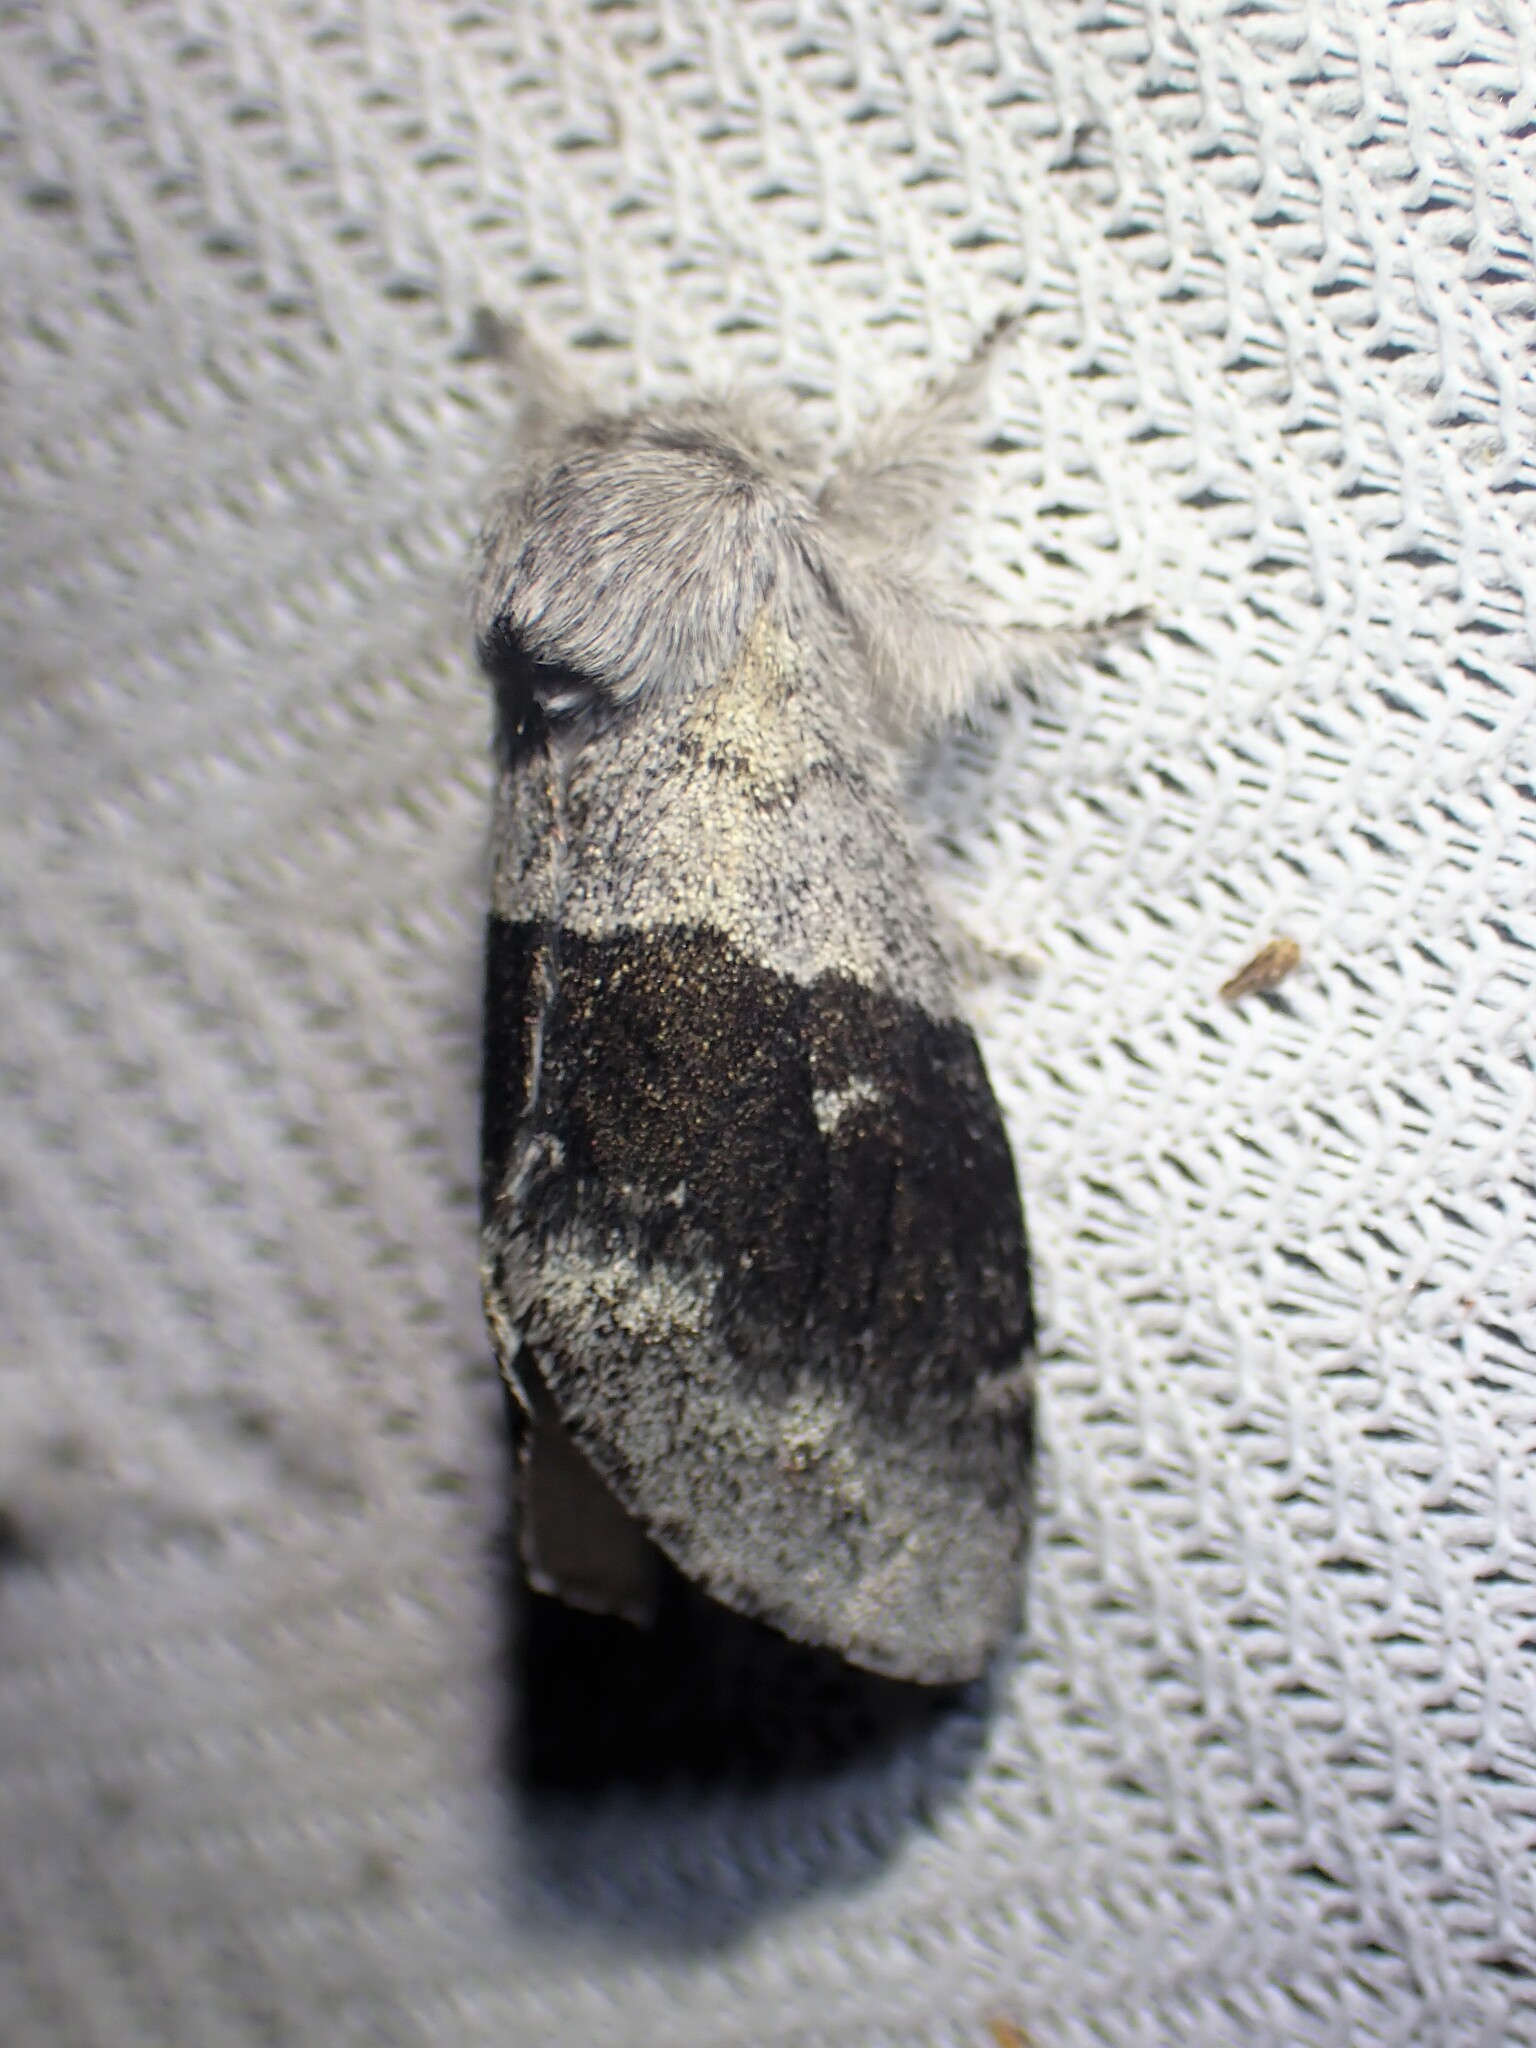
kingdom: Animalia
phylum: Arthropoda
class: Insecta
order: Lepidoptera
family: Notodontidae
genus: Gluphisia
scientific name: Gluphisia avimacula
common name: Four-spotted gluphisia moth
